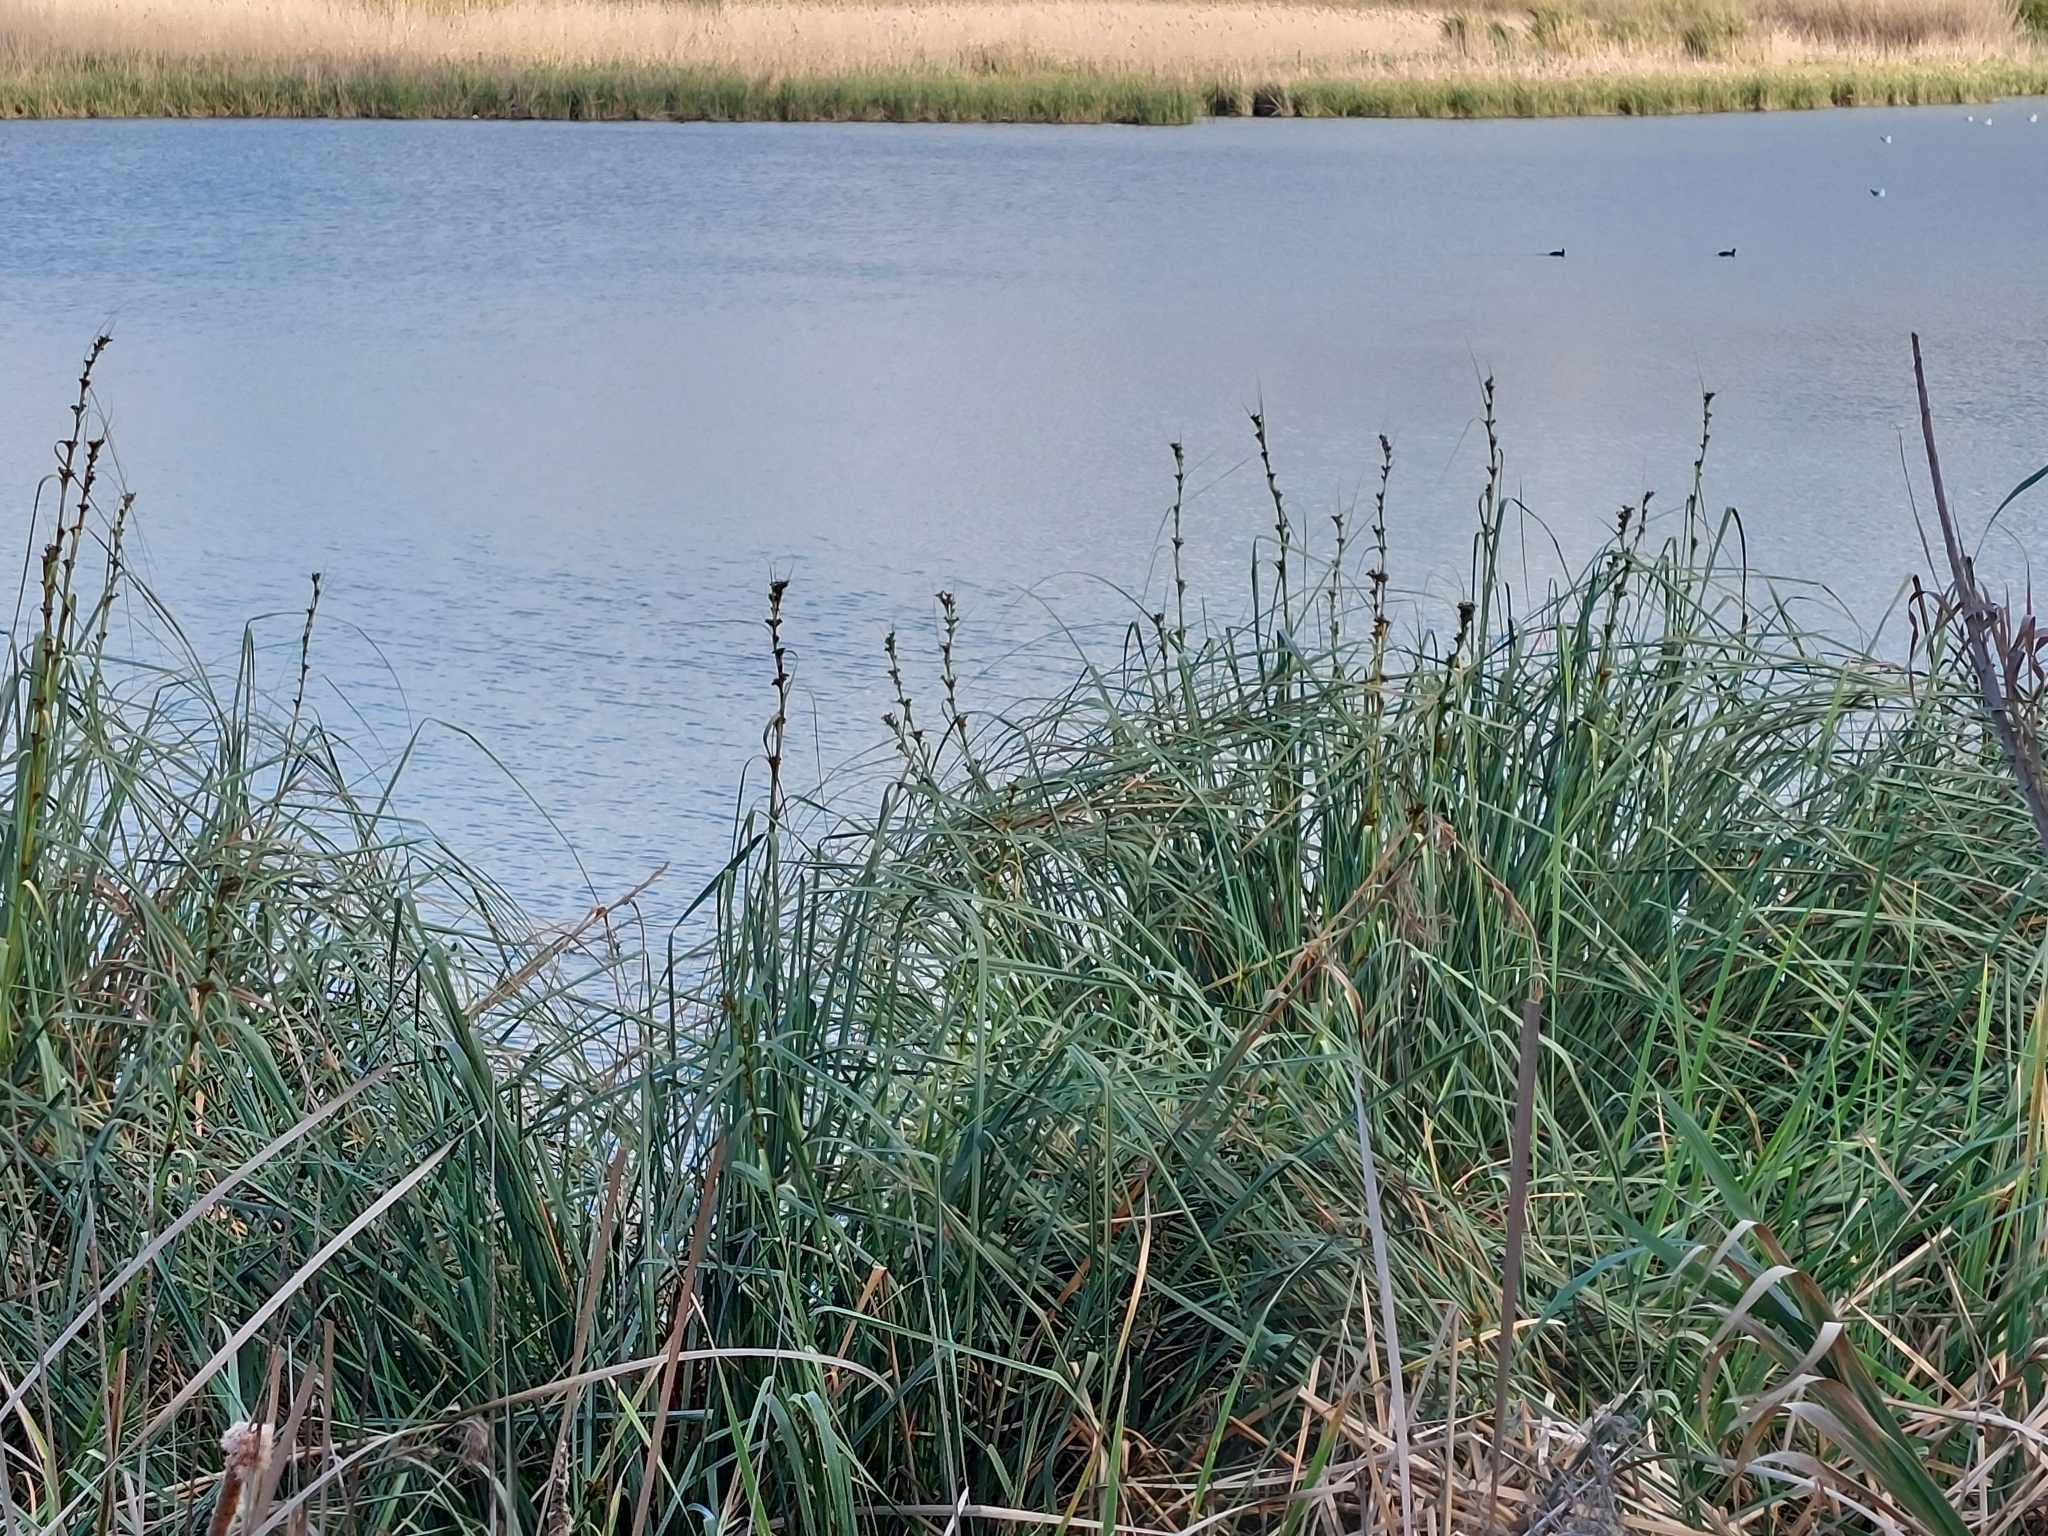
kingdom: Plantae
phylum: Tracheophyta
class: Liliopsida
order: Poales
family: Cyperaceae
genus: Cladium
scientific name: Cladium mariscus
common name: Great fen-sedge
